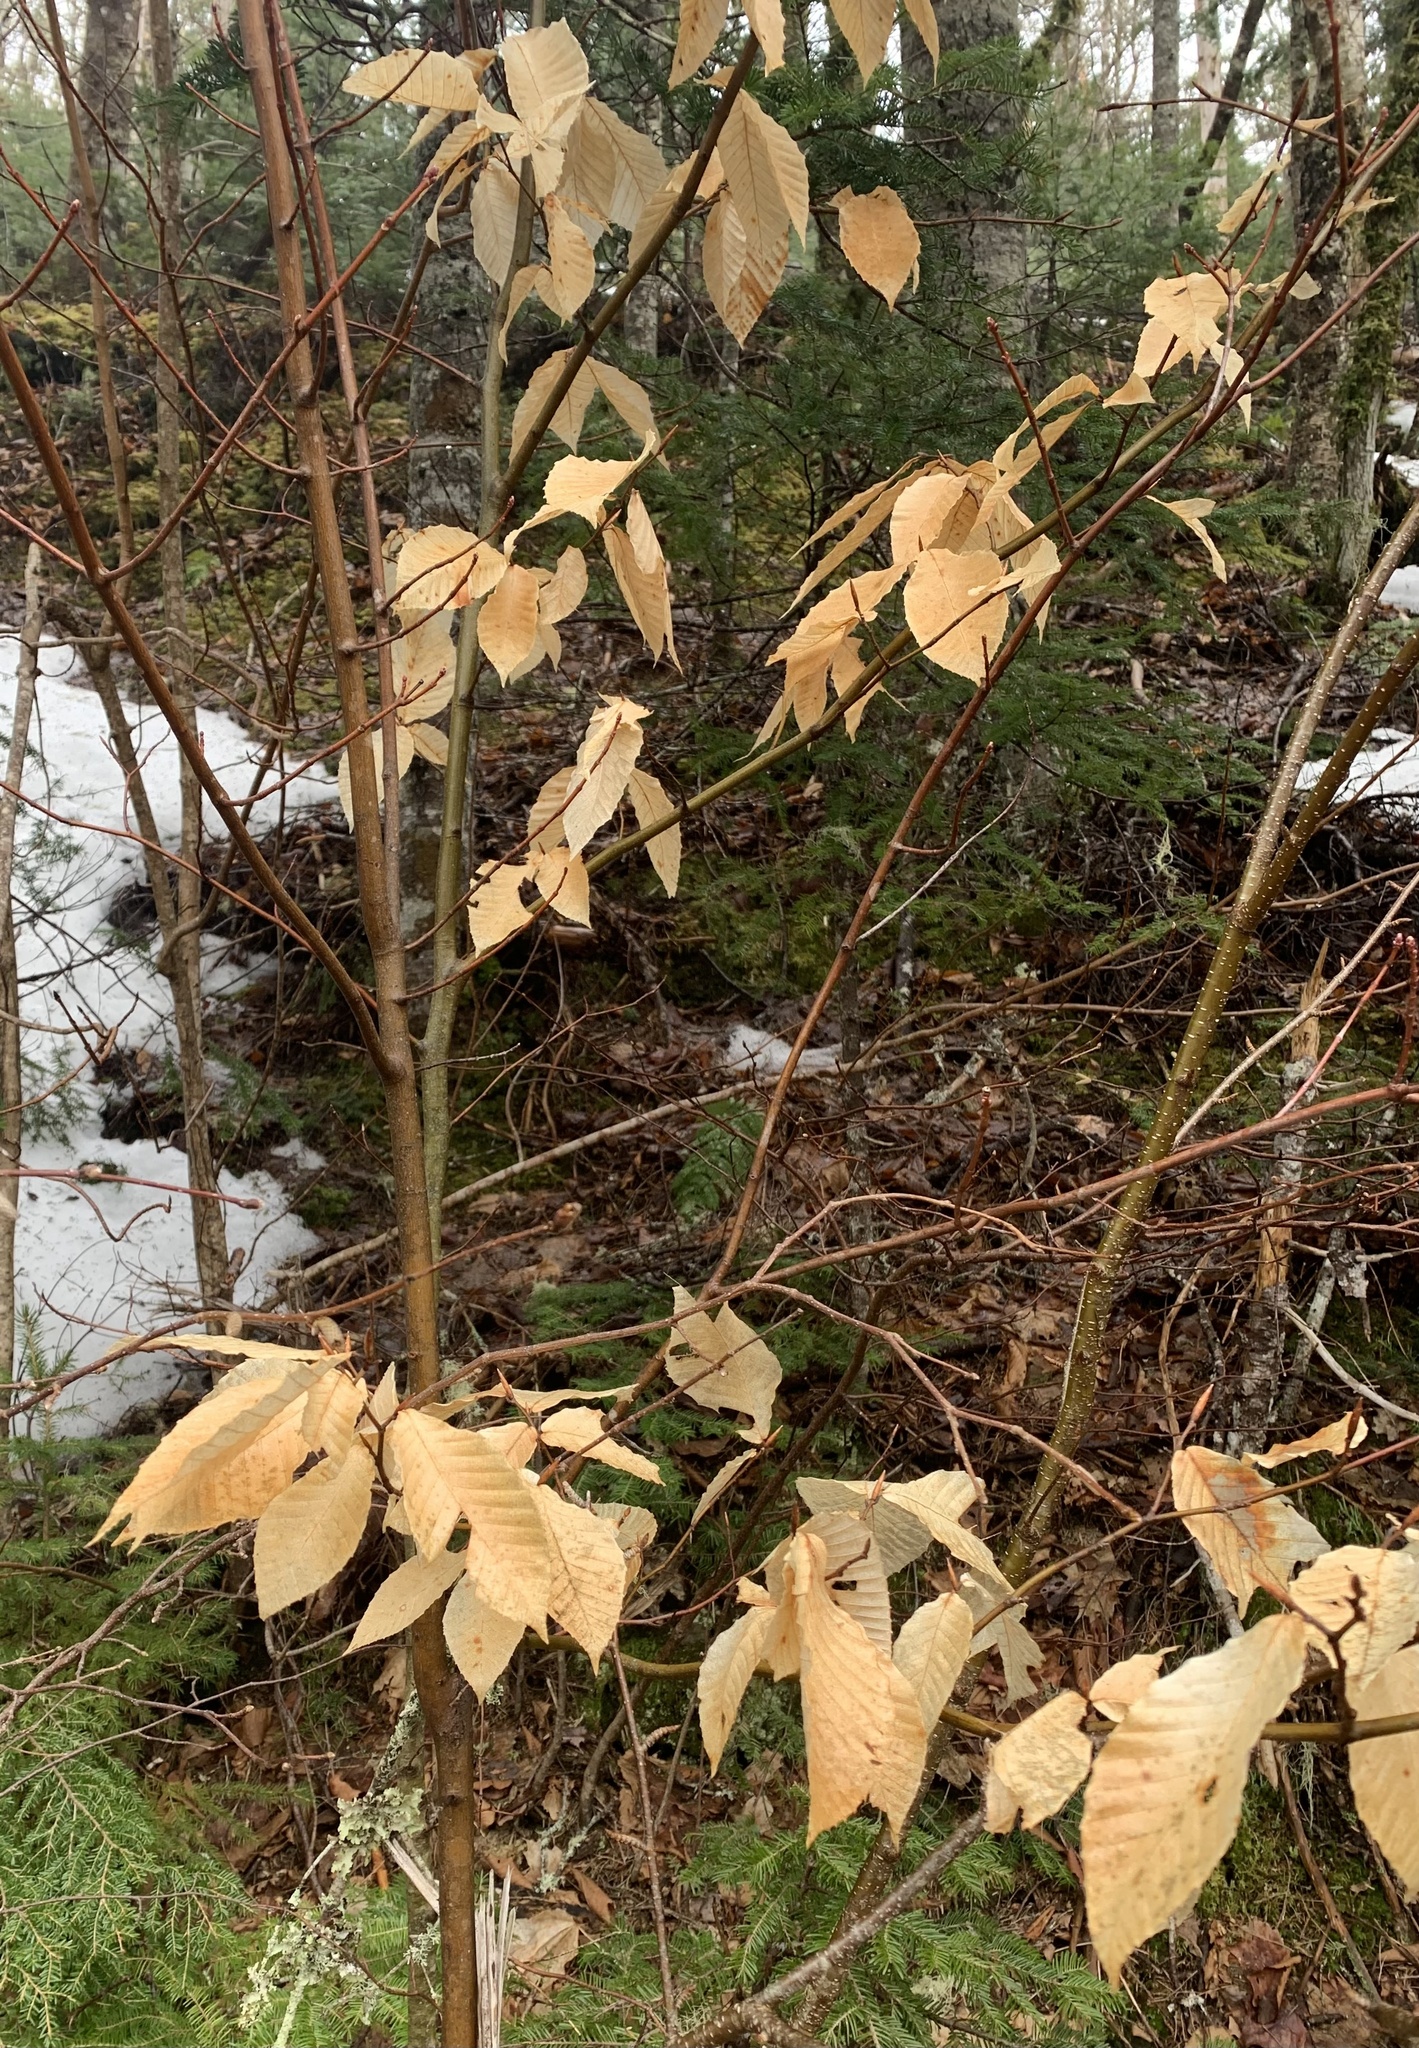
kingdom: Plantae
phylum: Tracheophyta
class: Magnoliopsida
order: Fagales
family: Fagaceae
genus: Fagus
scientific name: Fagus grandifolia
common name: American beech
